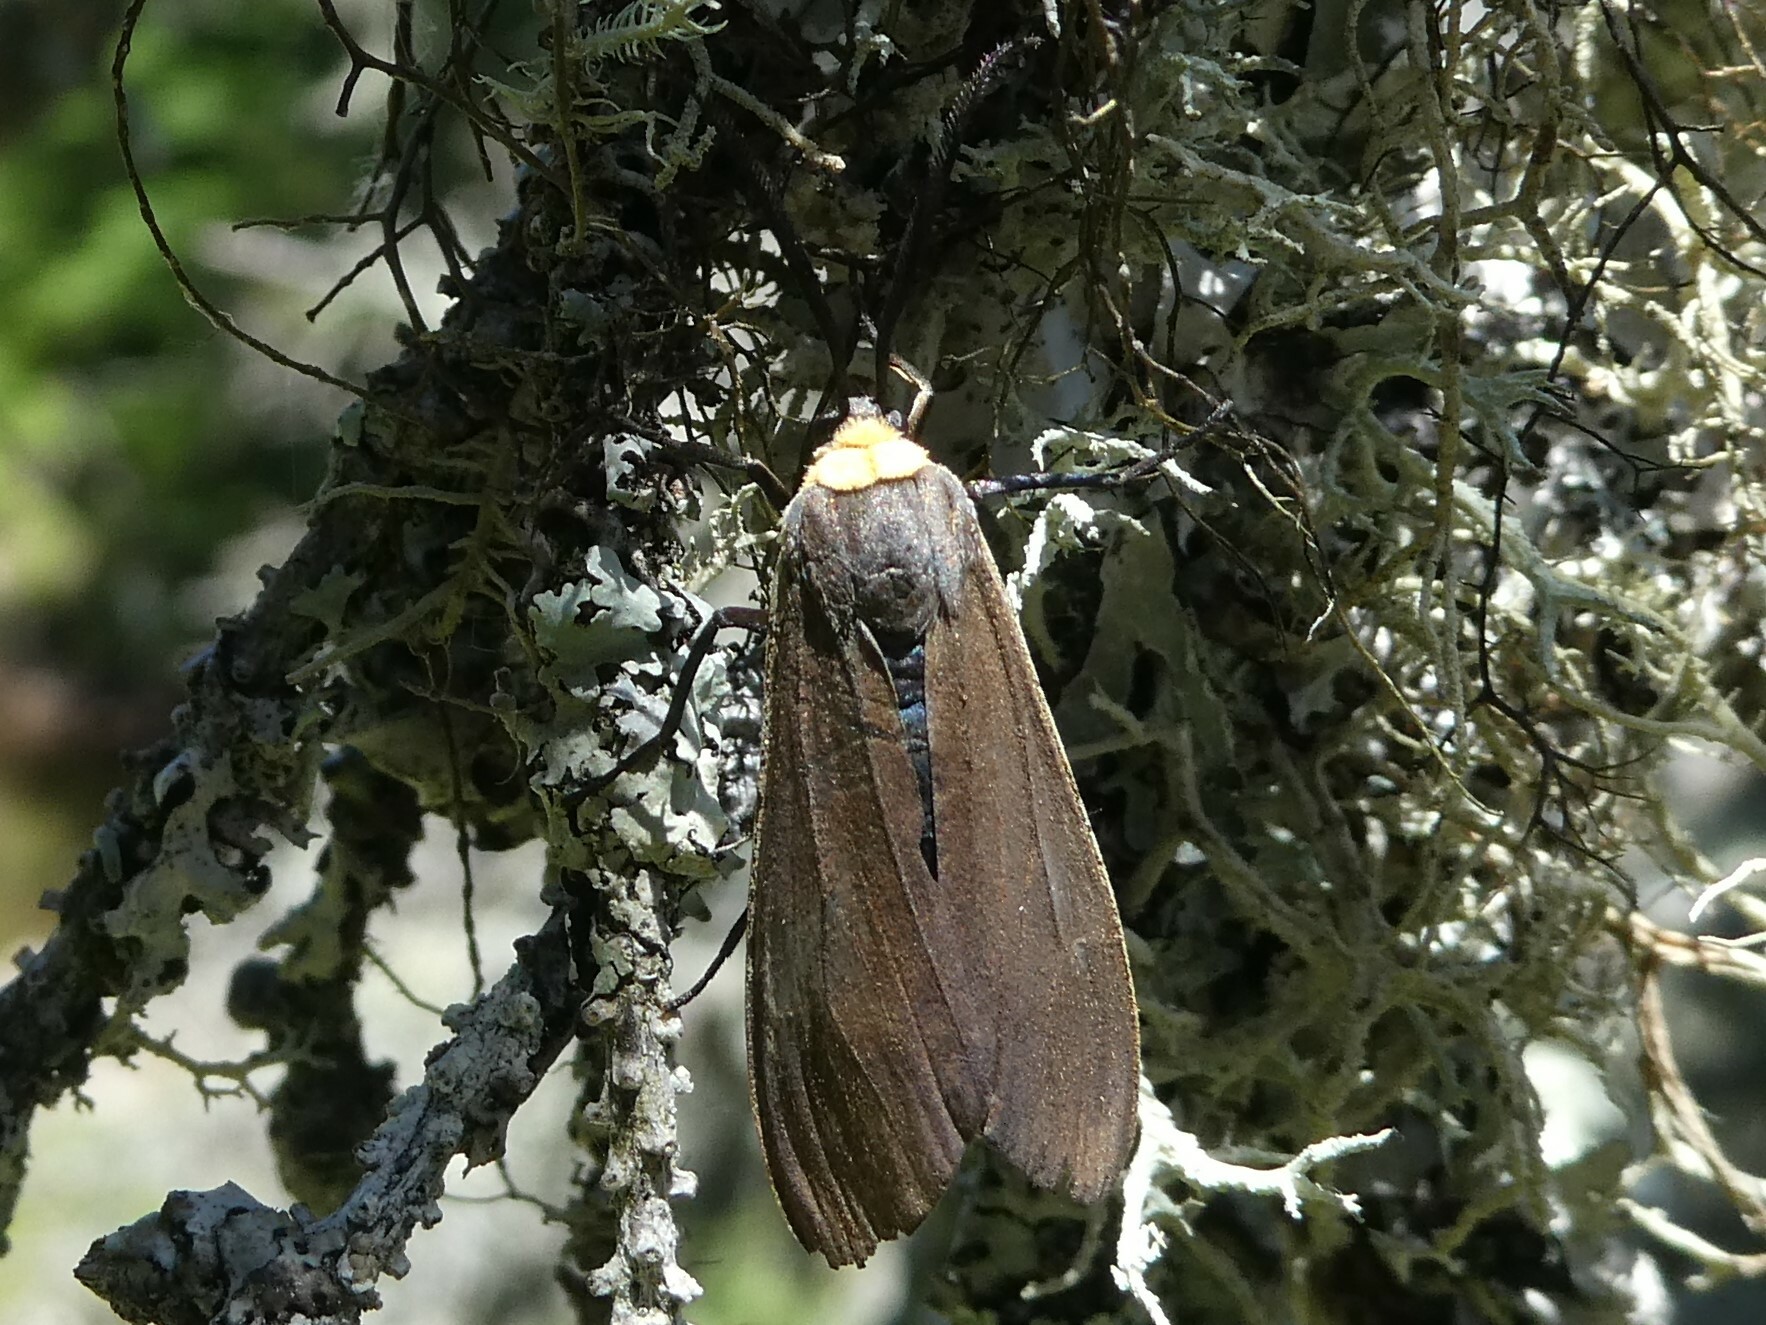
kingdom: Animalia
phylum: Arthropoda
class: Insecta
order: Lepidoptera
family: Erebidae
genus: Cisseps
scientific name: Cisseps fulvicollis
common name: Yellow-collared scape moth
